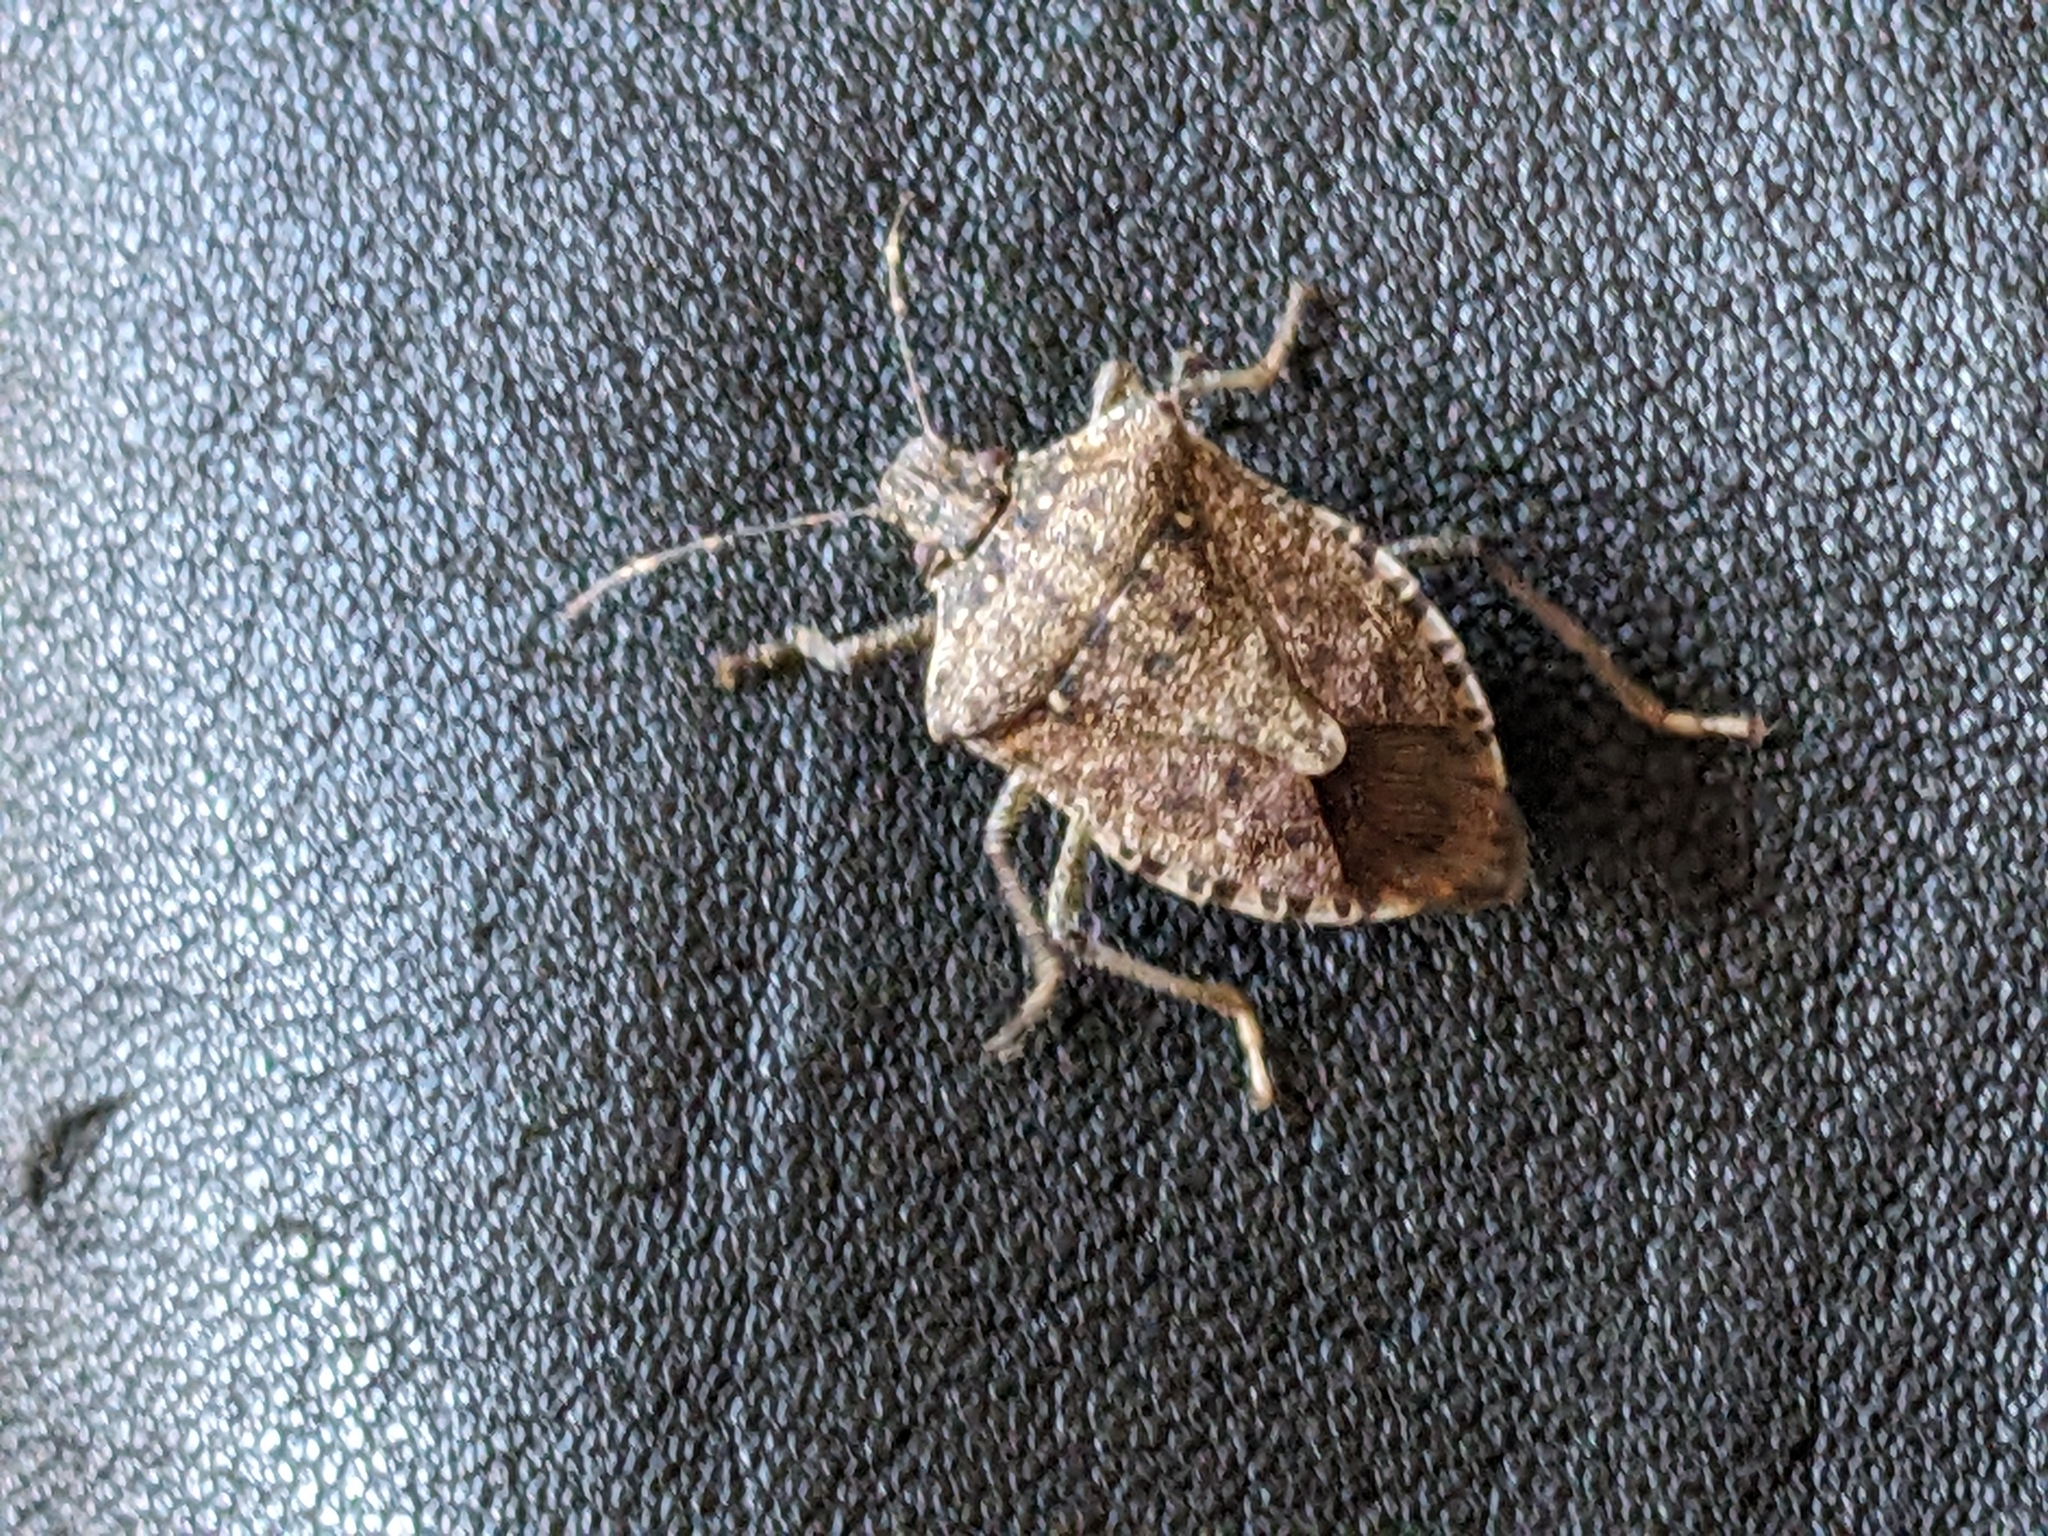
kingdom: Animalia
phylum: Arthropoda
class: Insecta
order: Hemiptera
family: Pentatomidae
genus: Halyomorpha
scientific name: Halyomorpha halys
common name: Brown marmorated stink bug
